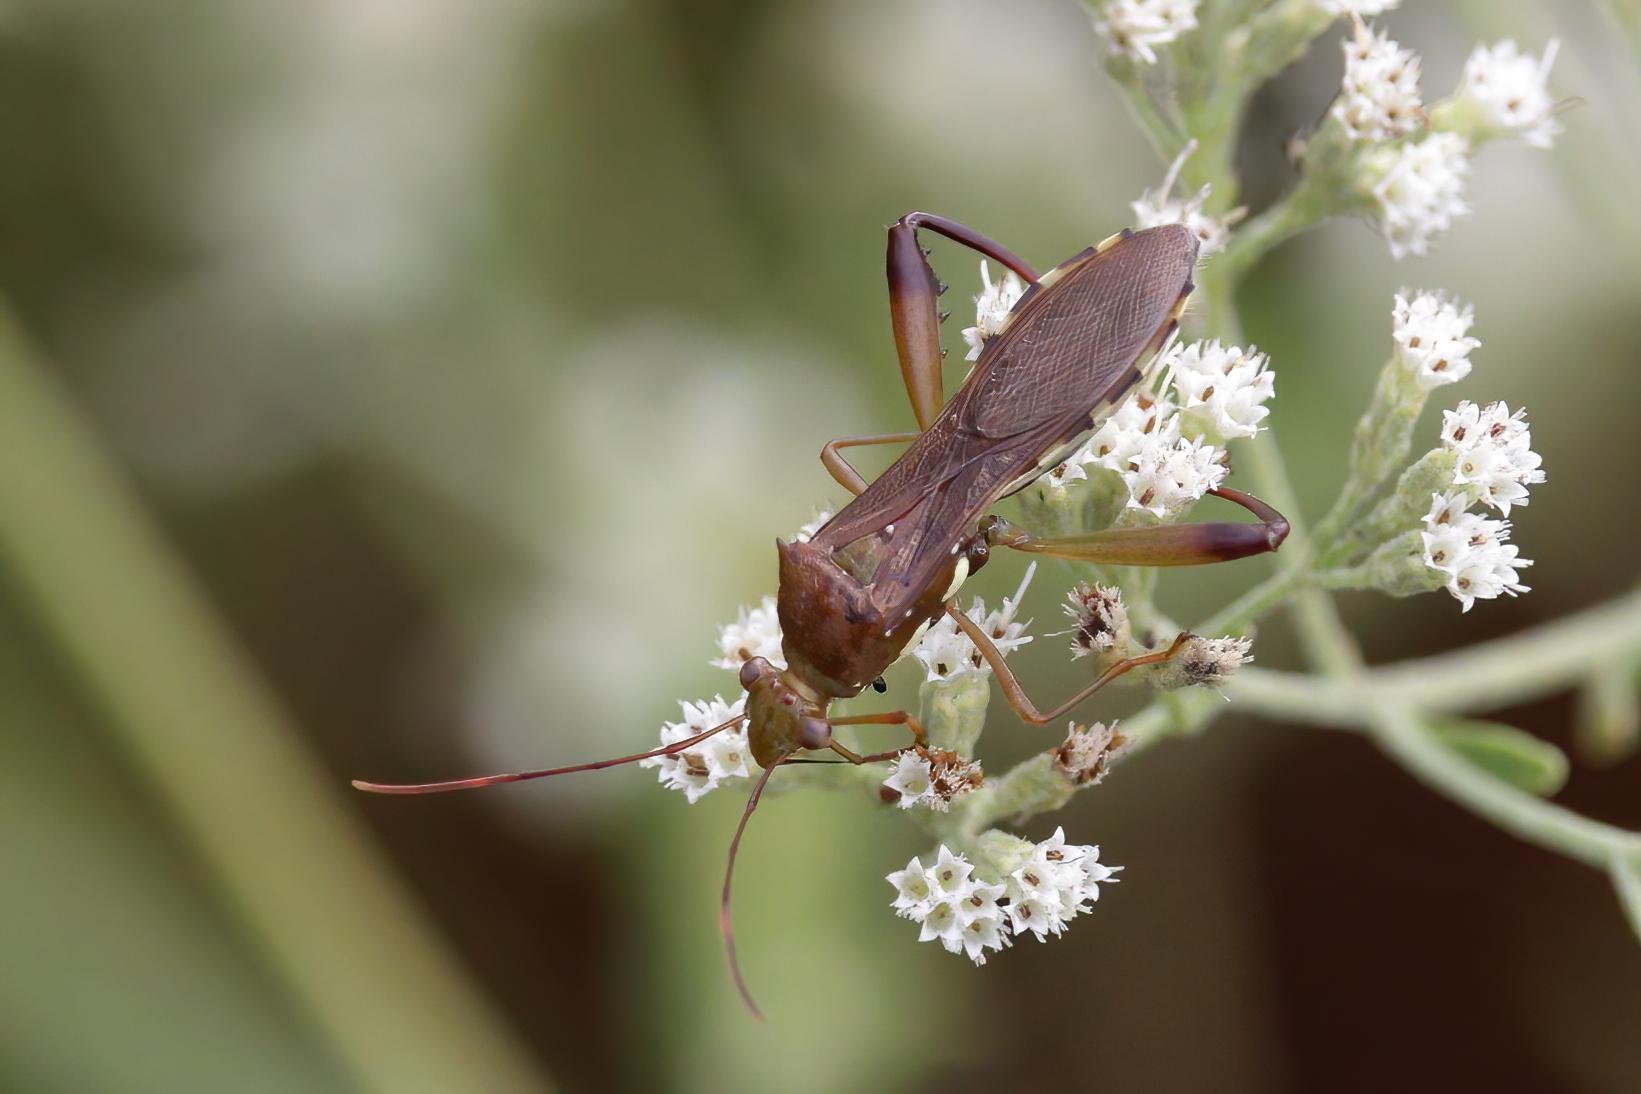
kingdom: Animalia
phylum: Arthropoda
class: Insecta
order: Hemiptera
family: Alydidae
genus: Hyalymenus
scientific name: Hyalymenus tarsatus
